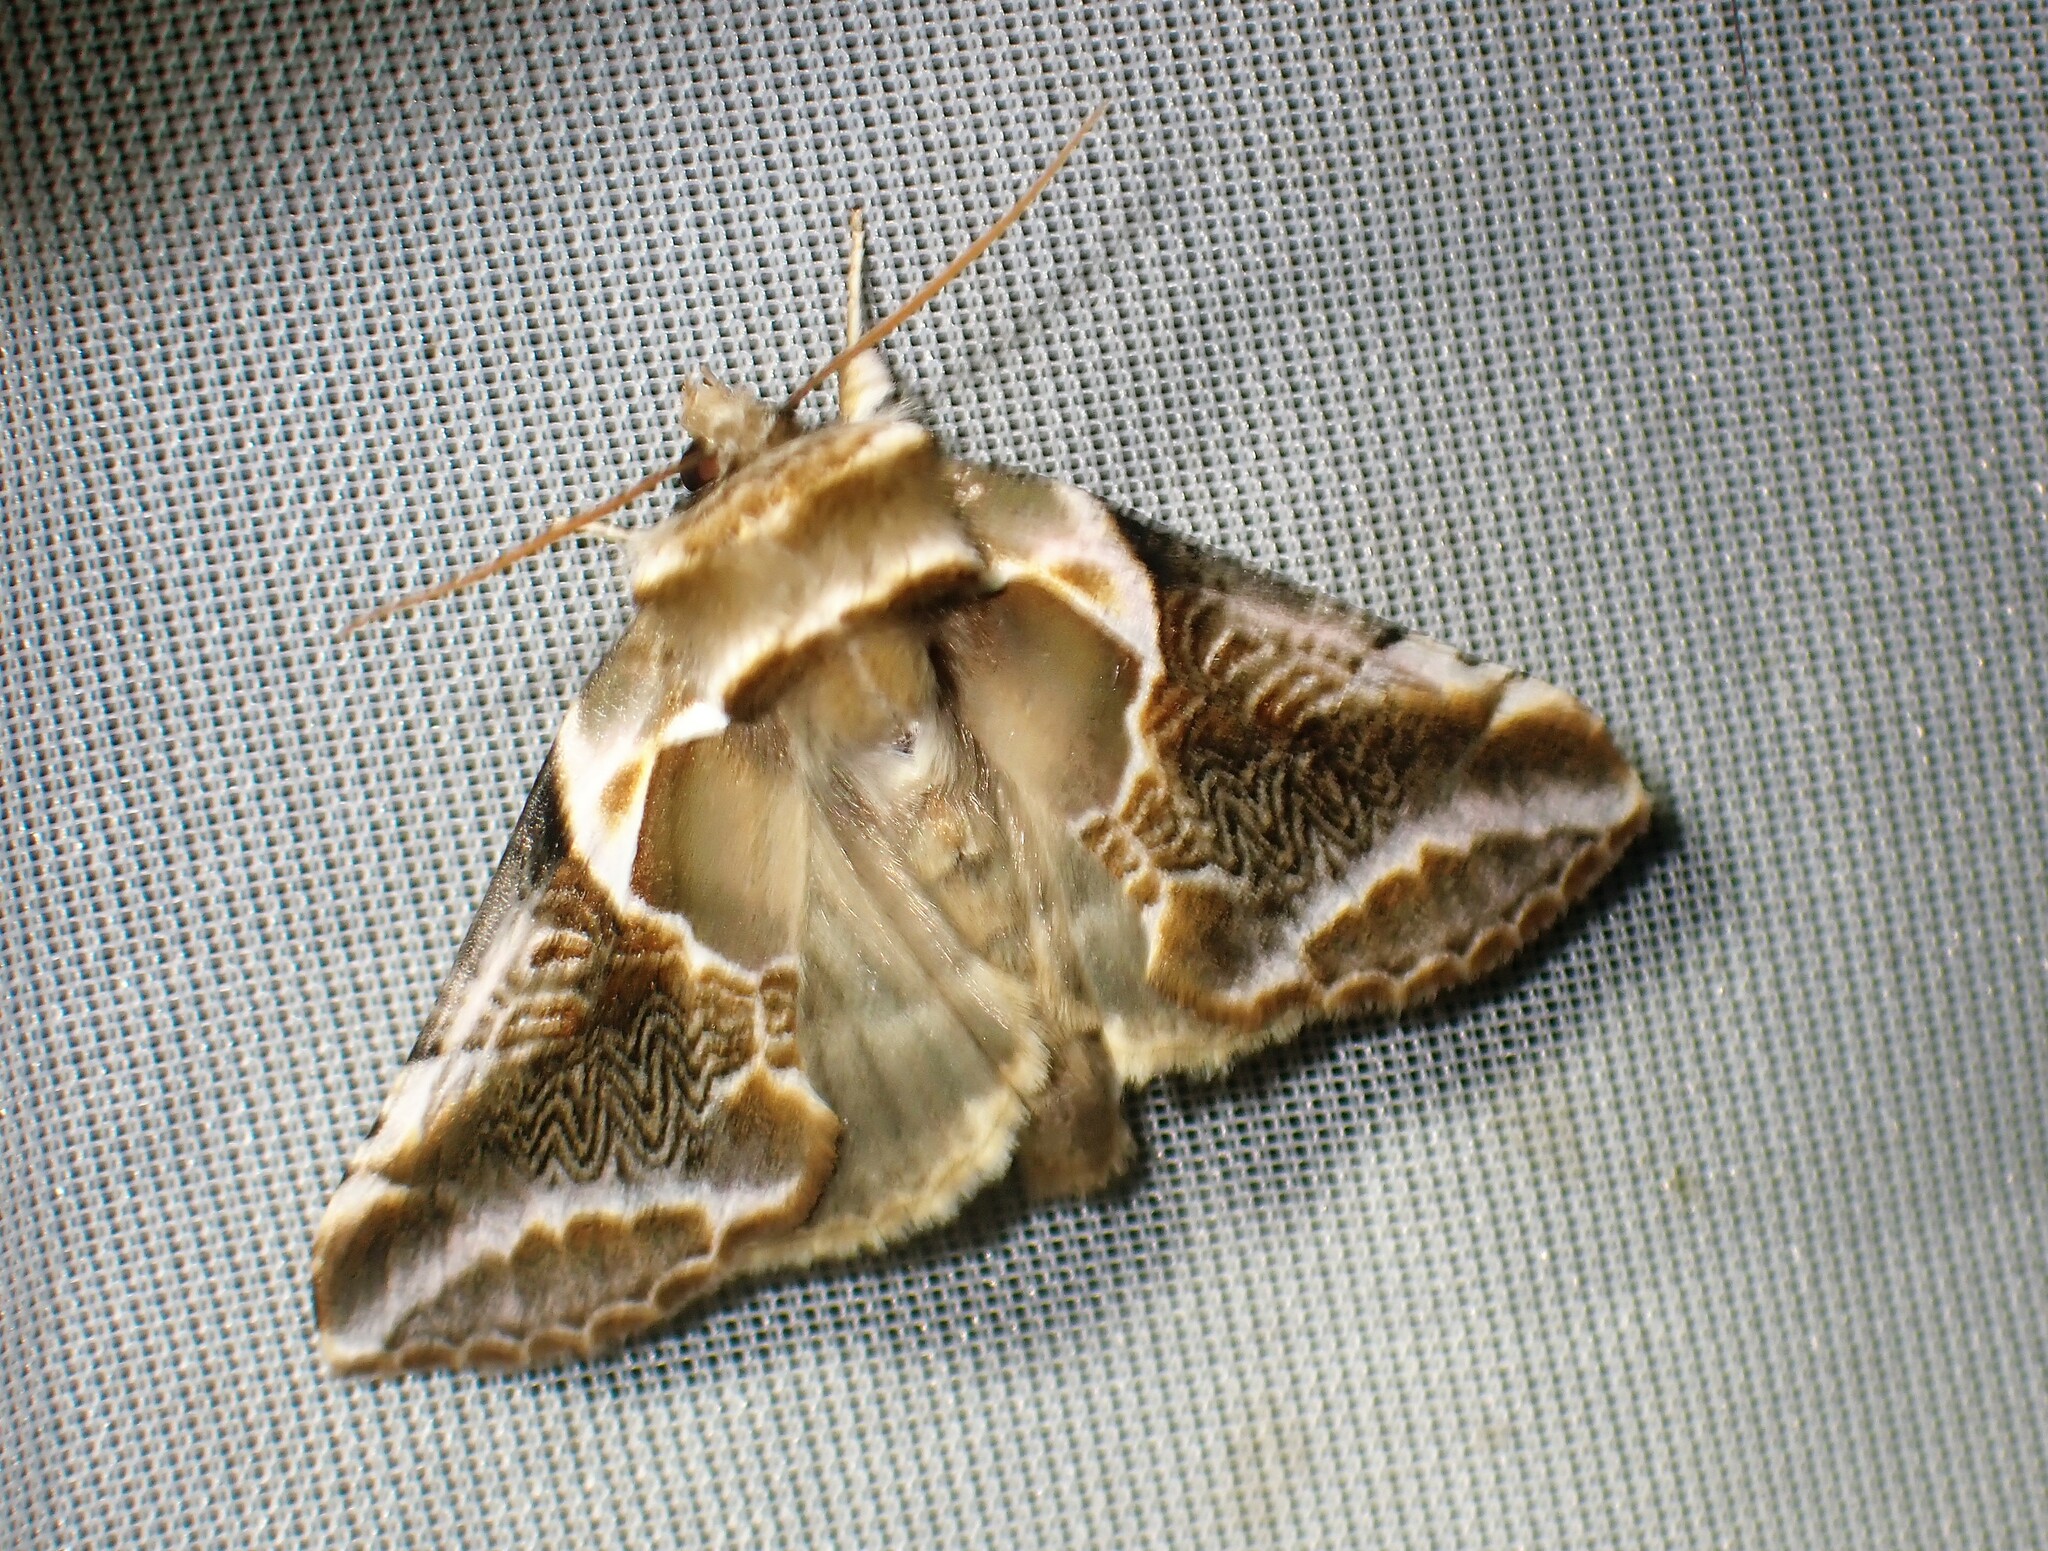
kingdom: Animalia
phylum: Arthropoda
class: Insecta
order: Lepidoptera
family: Drepanidae
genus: Habrosyne
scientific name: Habrosyne scripta
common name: Lettered habrosyne moth
